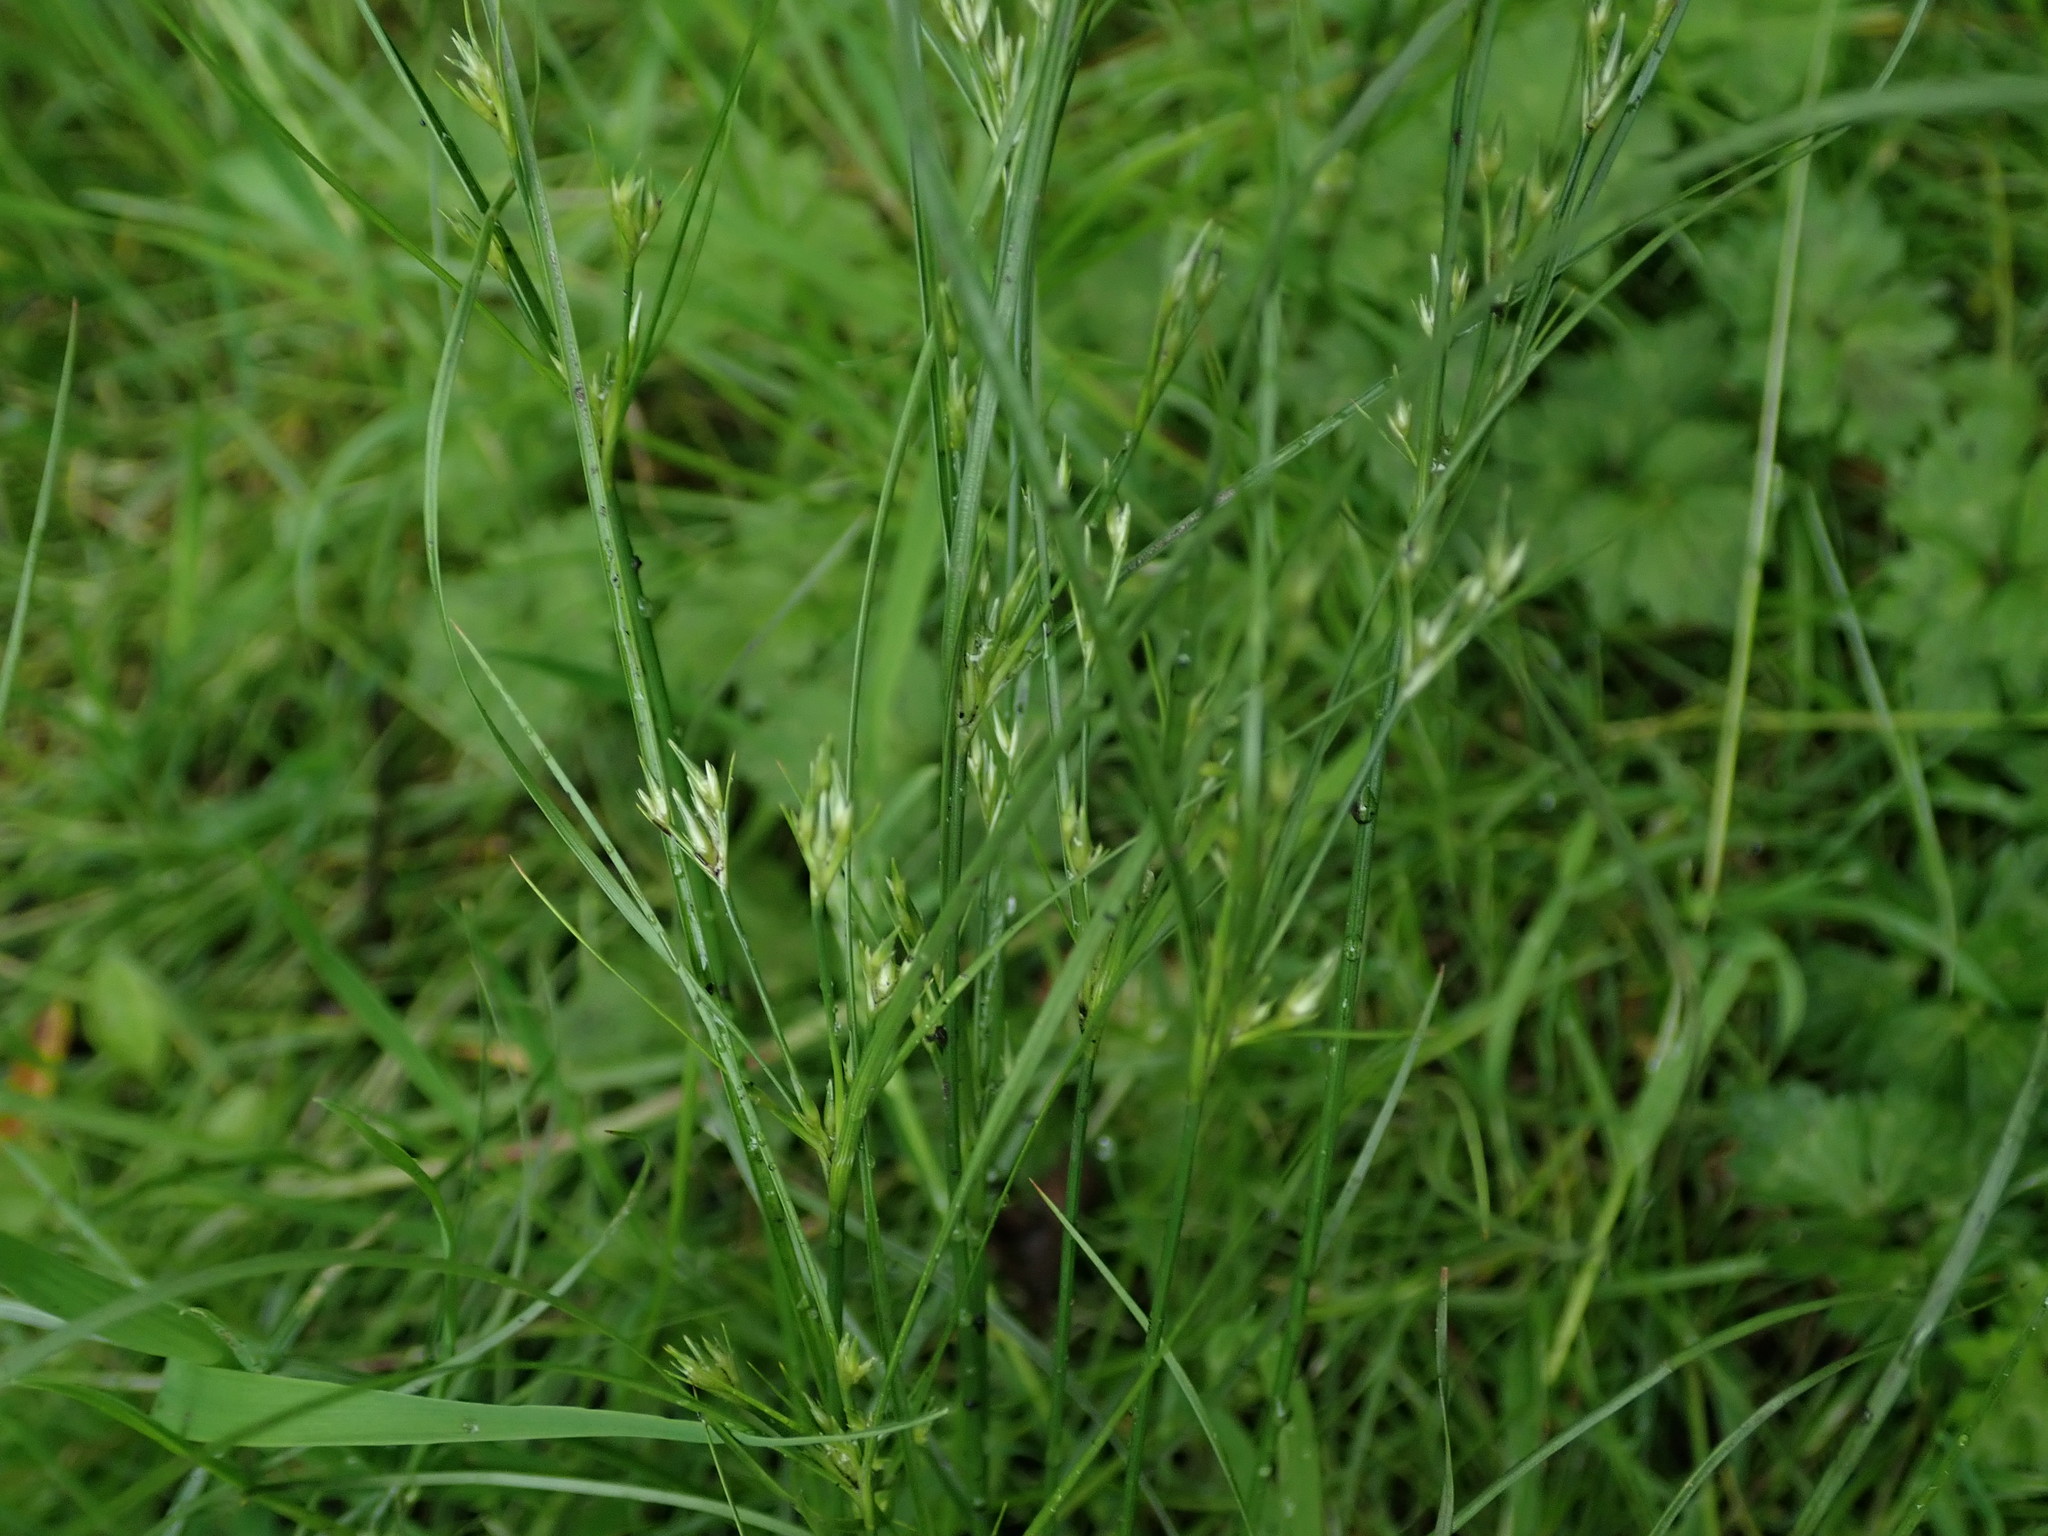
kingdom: Plantae
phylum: Tracheophyta
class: Liliopsida
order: Poales
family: Juncaceae
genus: Juncus
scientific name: Juncus tenuis
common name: Slender rush
